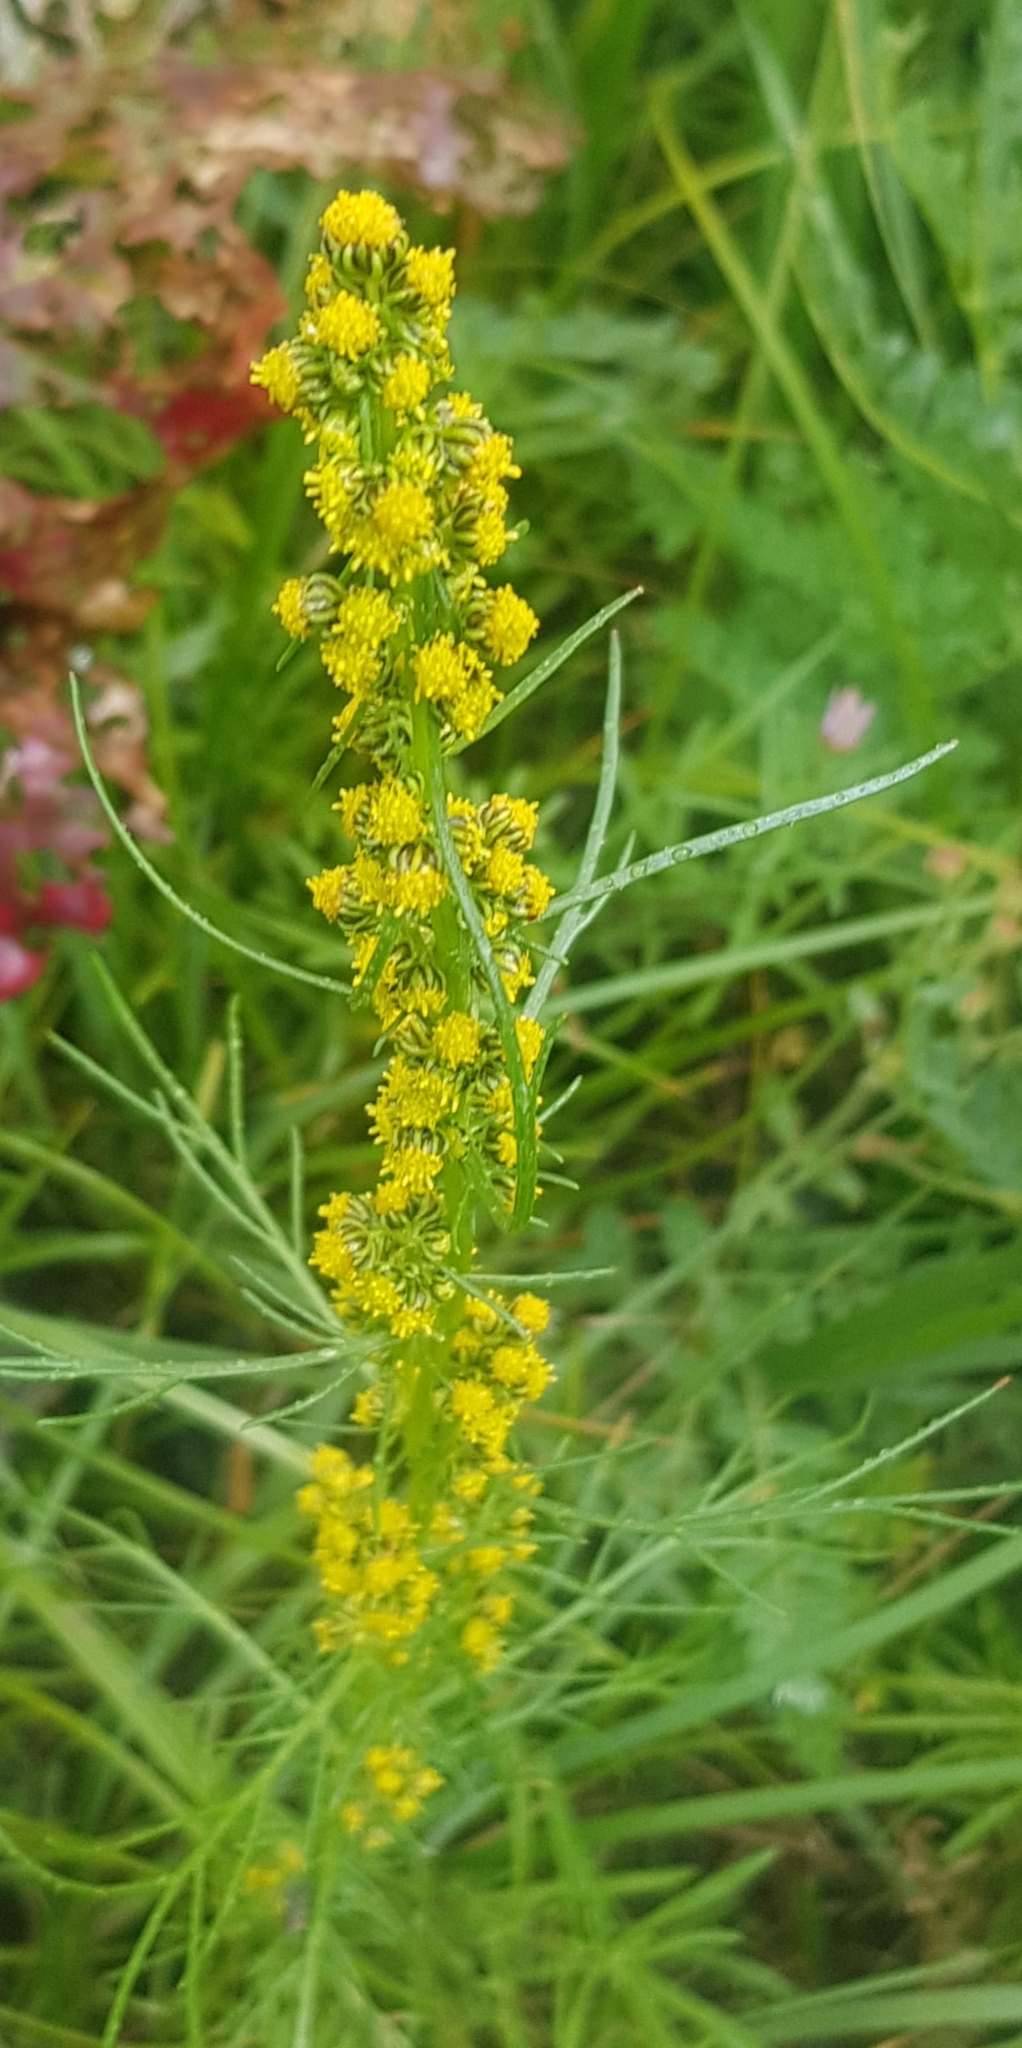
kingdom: Plantae
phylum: Tracheophyta
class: Magnoliopsida
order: Asterales
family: Asteraceae
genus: Artemisia
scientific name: Artemisia palustris
